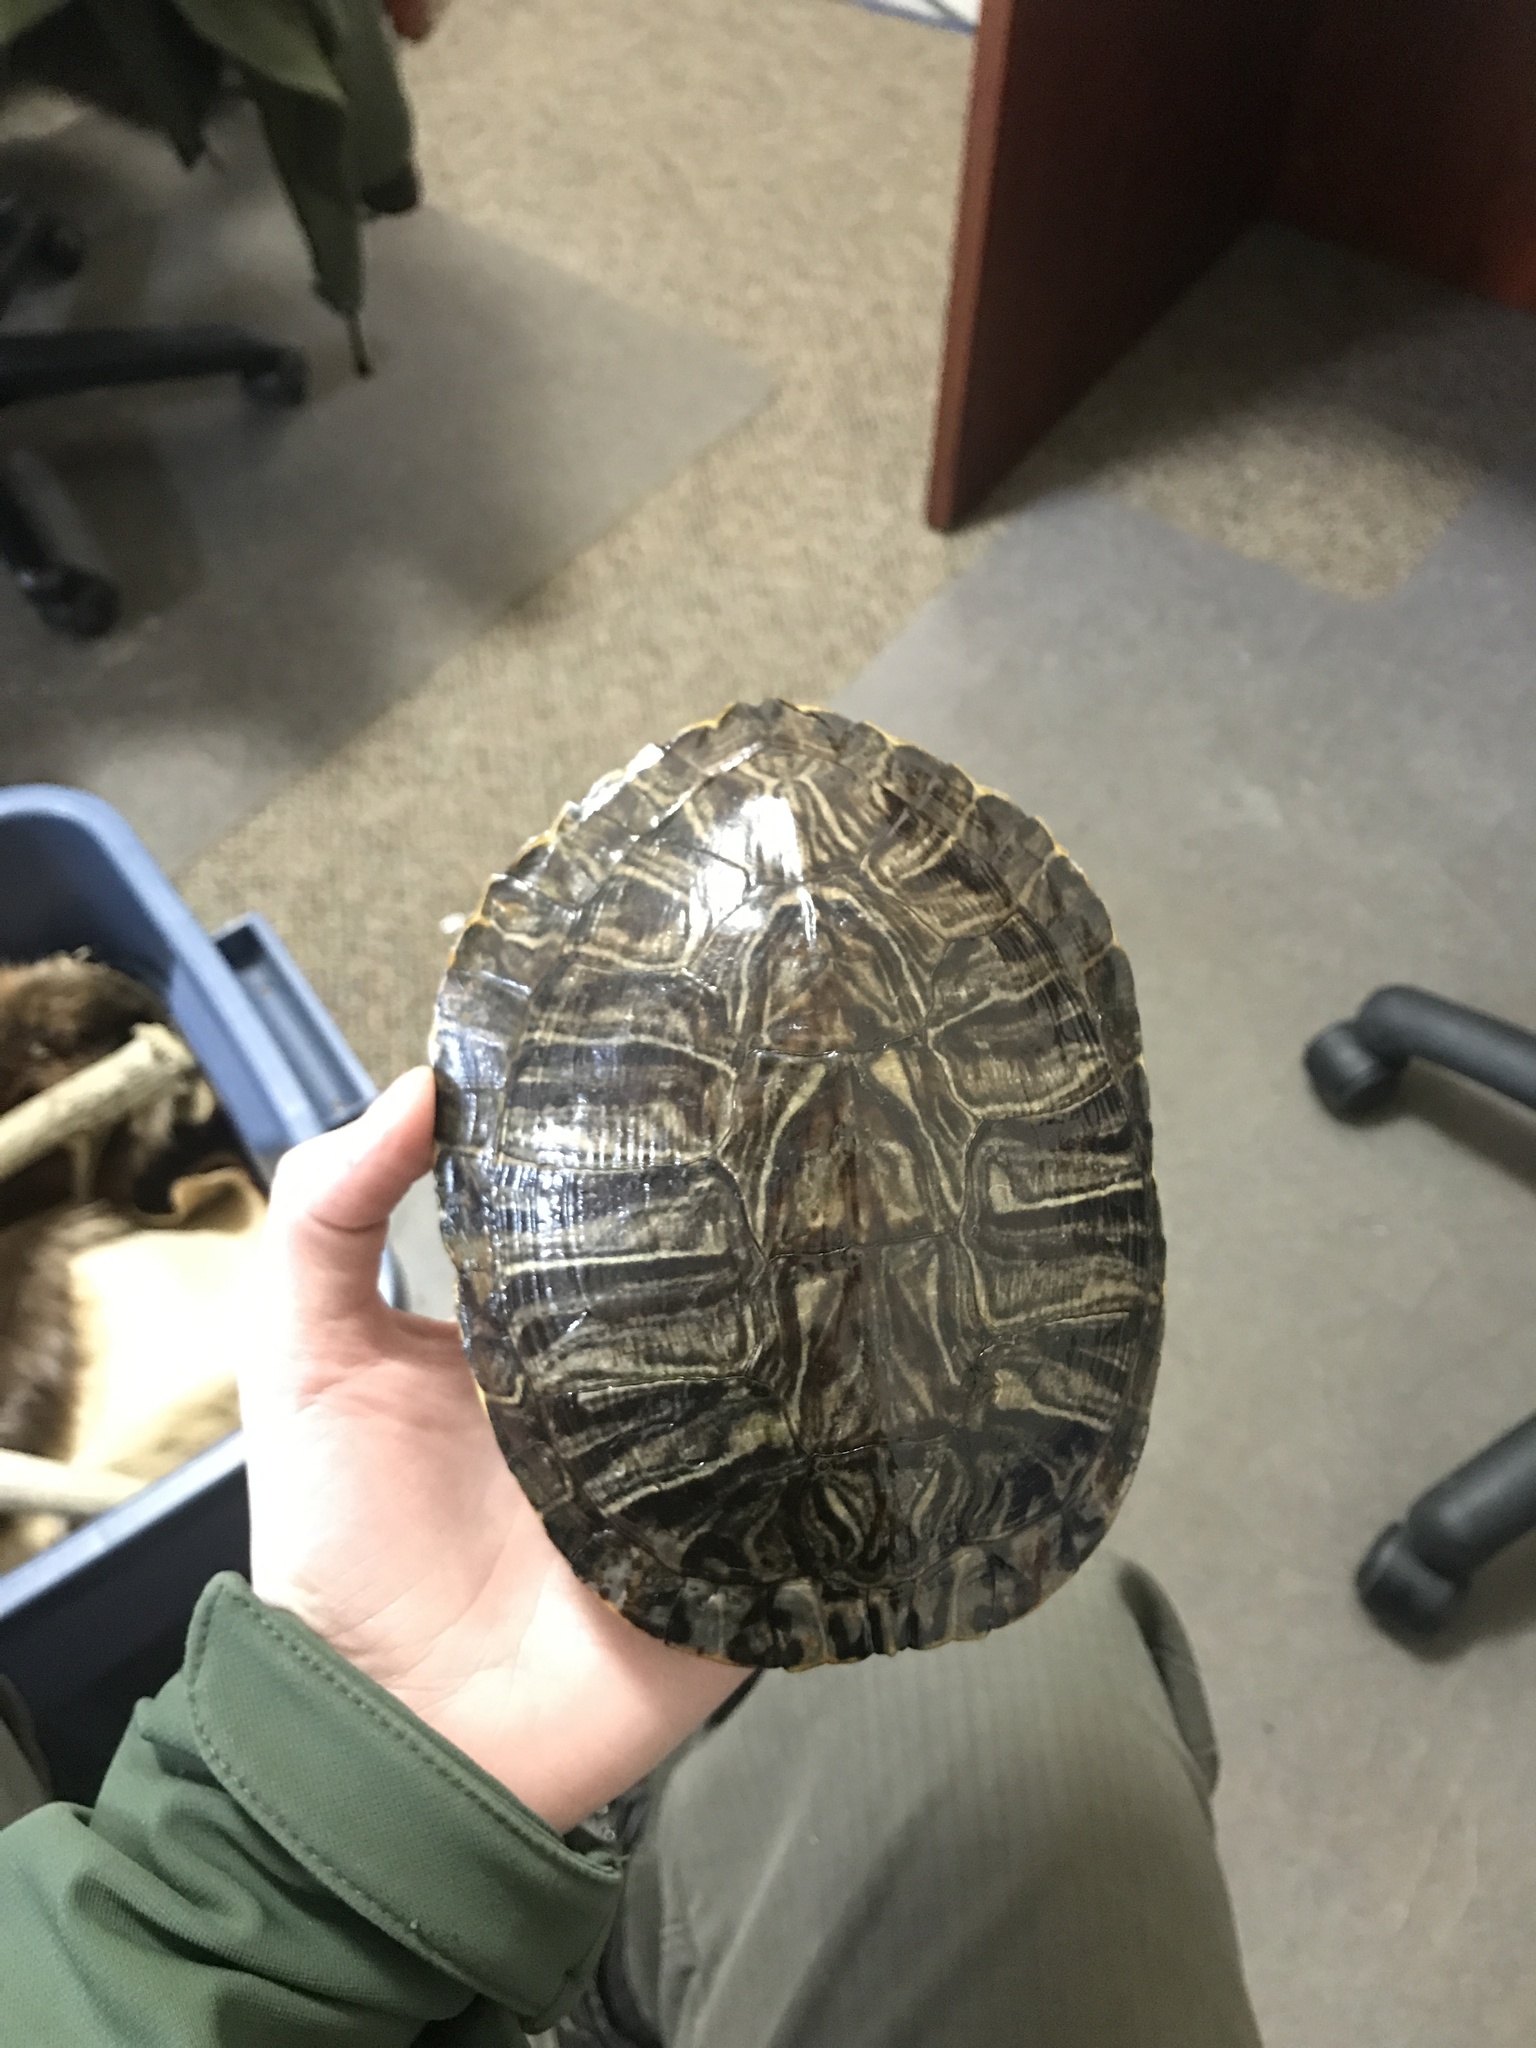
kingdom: Animalia
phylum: Chordata
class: Testudines
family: Emydidae
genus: Trachemys
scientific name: Trachemys scripta
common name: Slider
